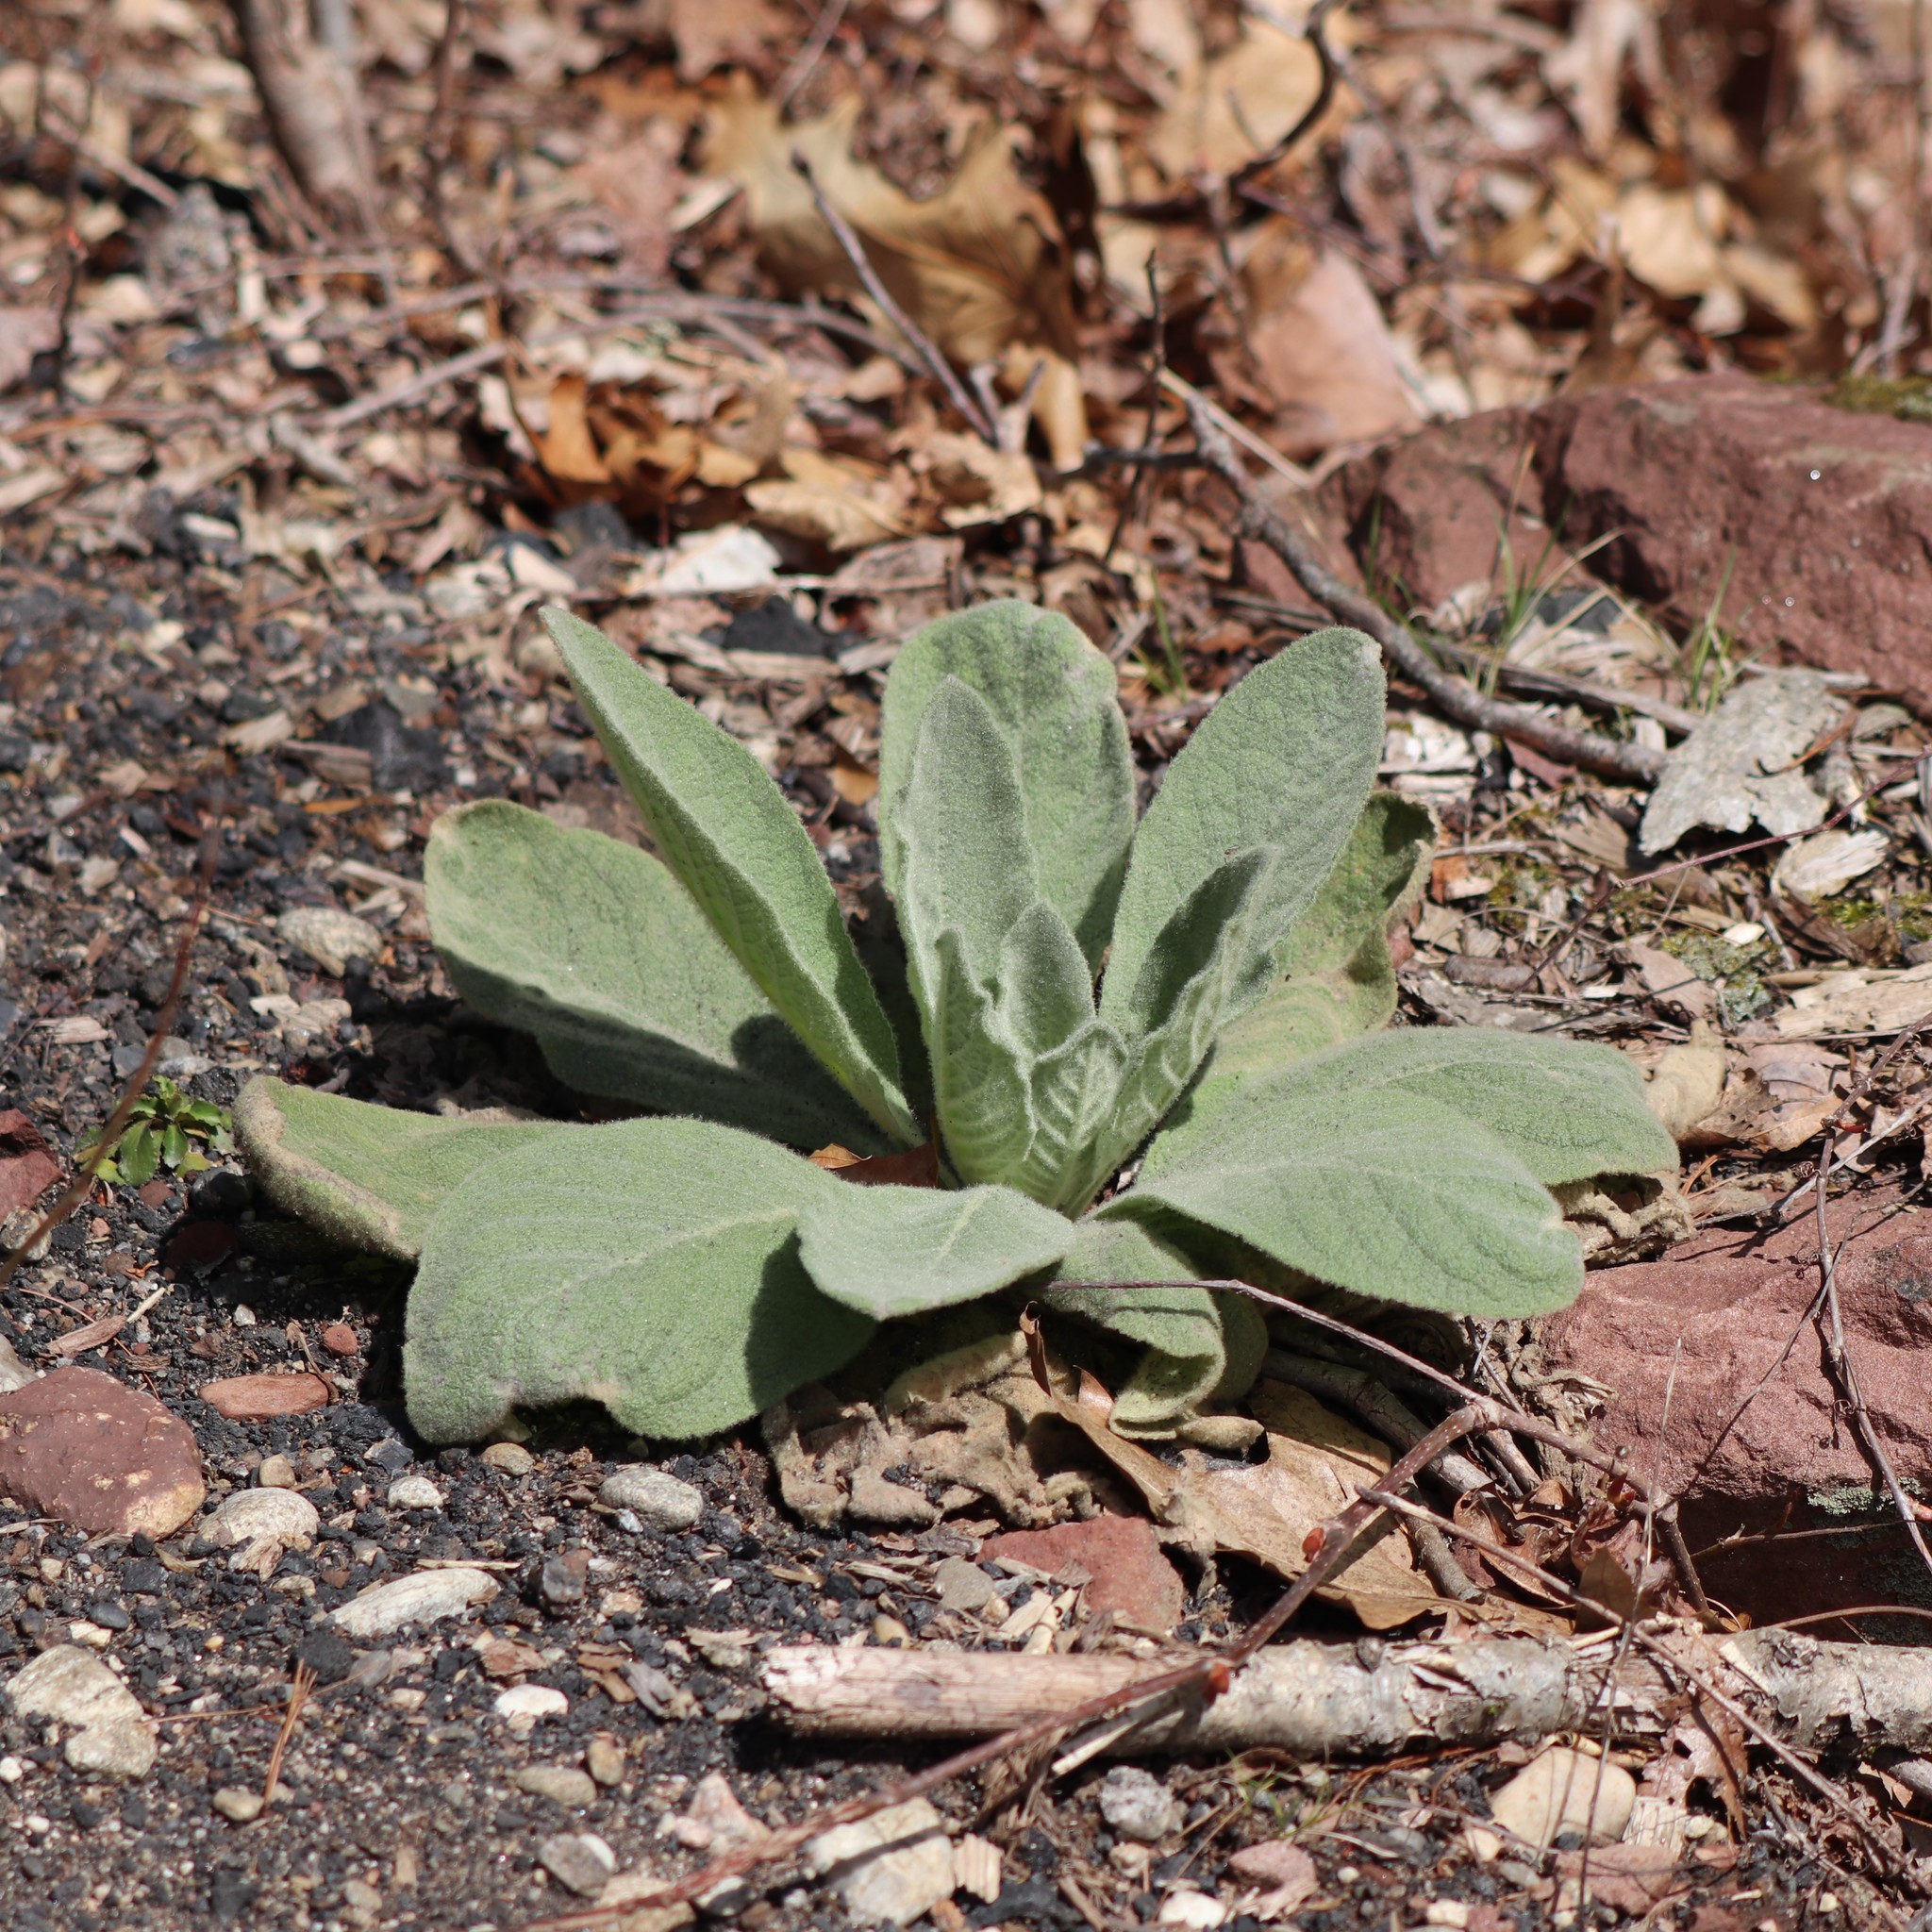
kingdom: Plantae
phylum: Tracheophyta
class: Magnoliopsida
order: Lamiales
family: Scrophulariaceae
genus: Verbascum
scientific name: Verbascum thapsus
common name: Common mullein
